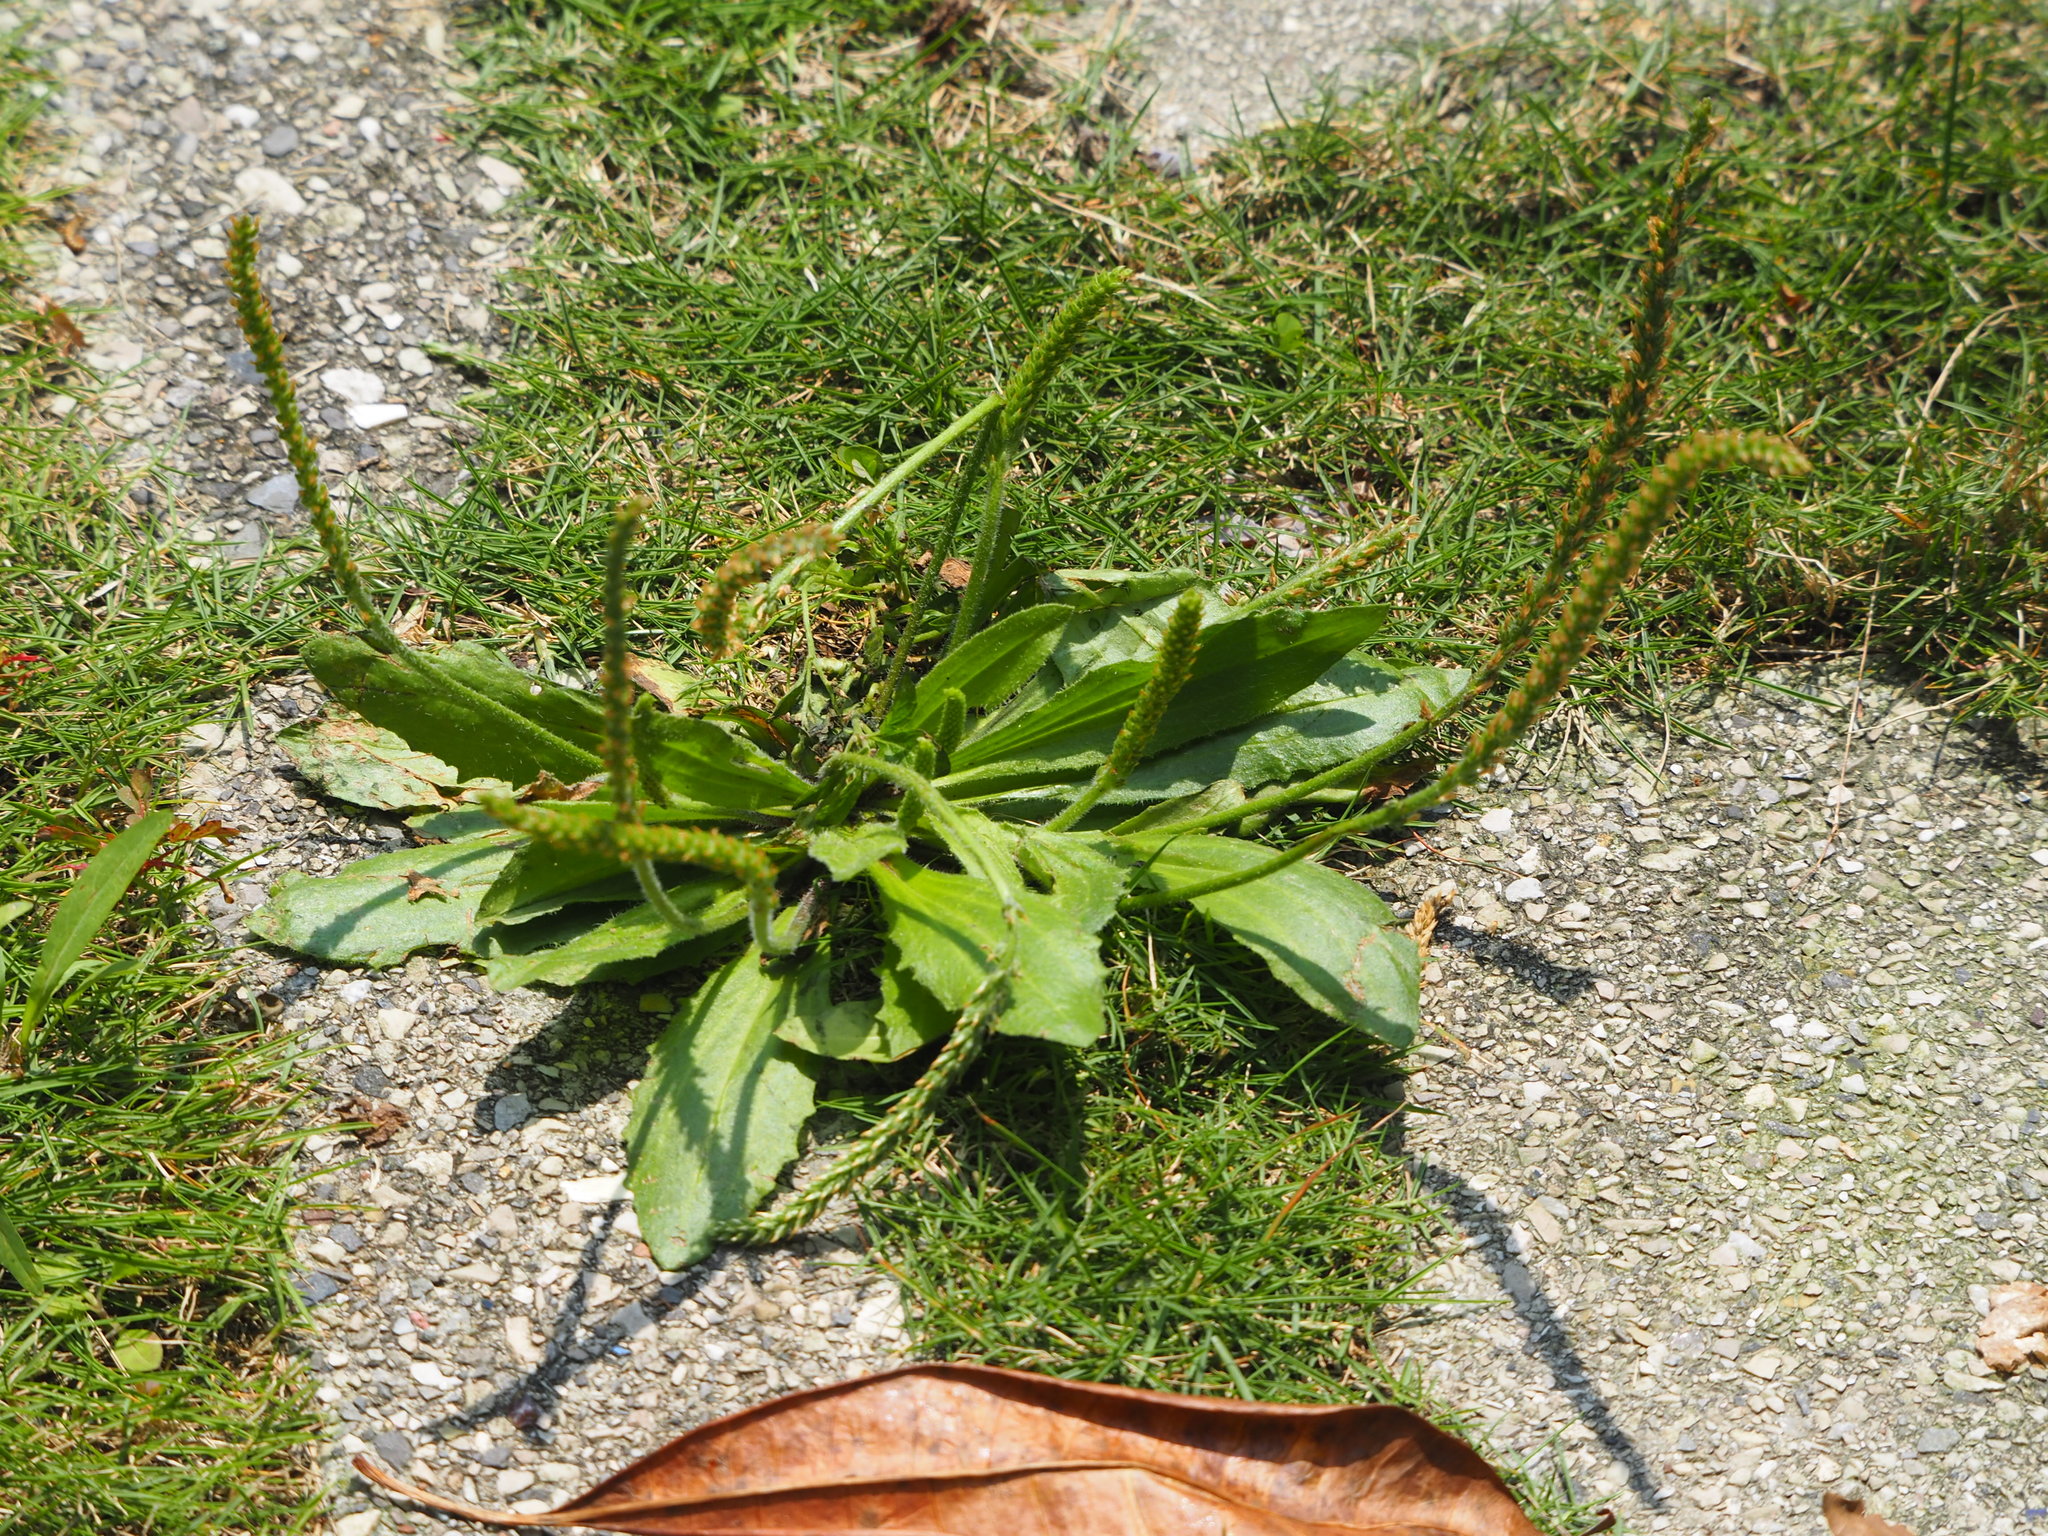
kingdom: Plantae
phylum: Tracheophyta
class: Magnoliopsida
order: Lamiales
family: Plantaginaceae
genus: Plantago
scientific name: Plantago asiatica
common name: Psyllium
